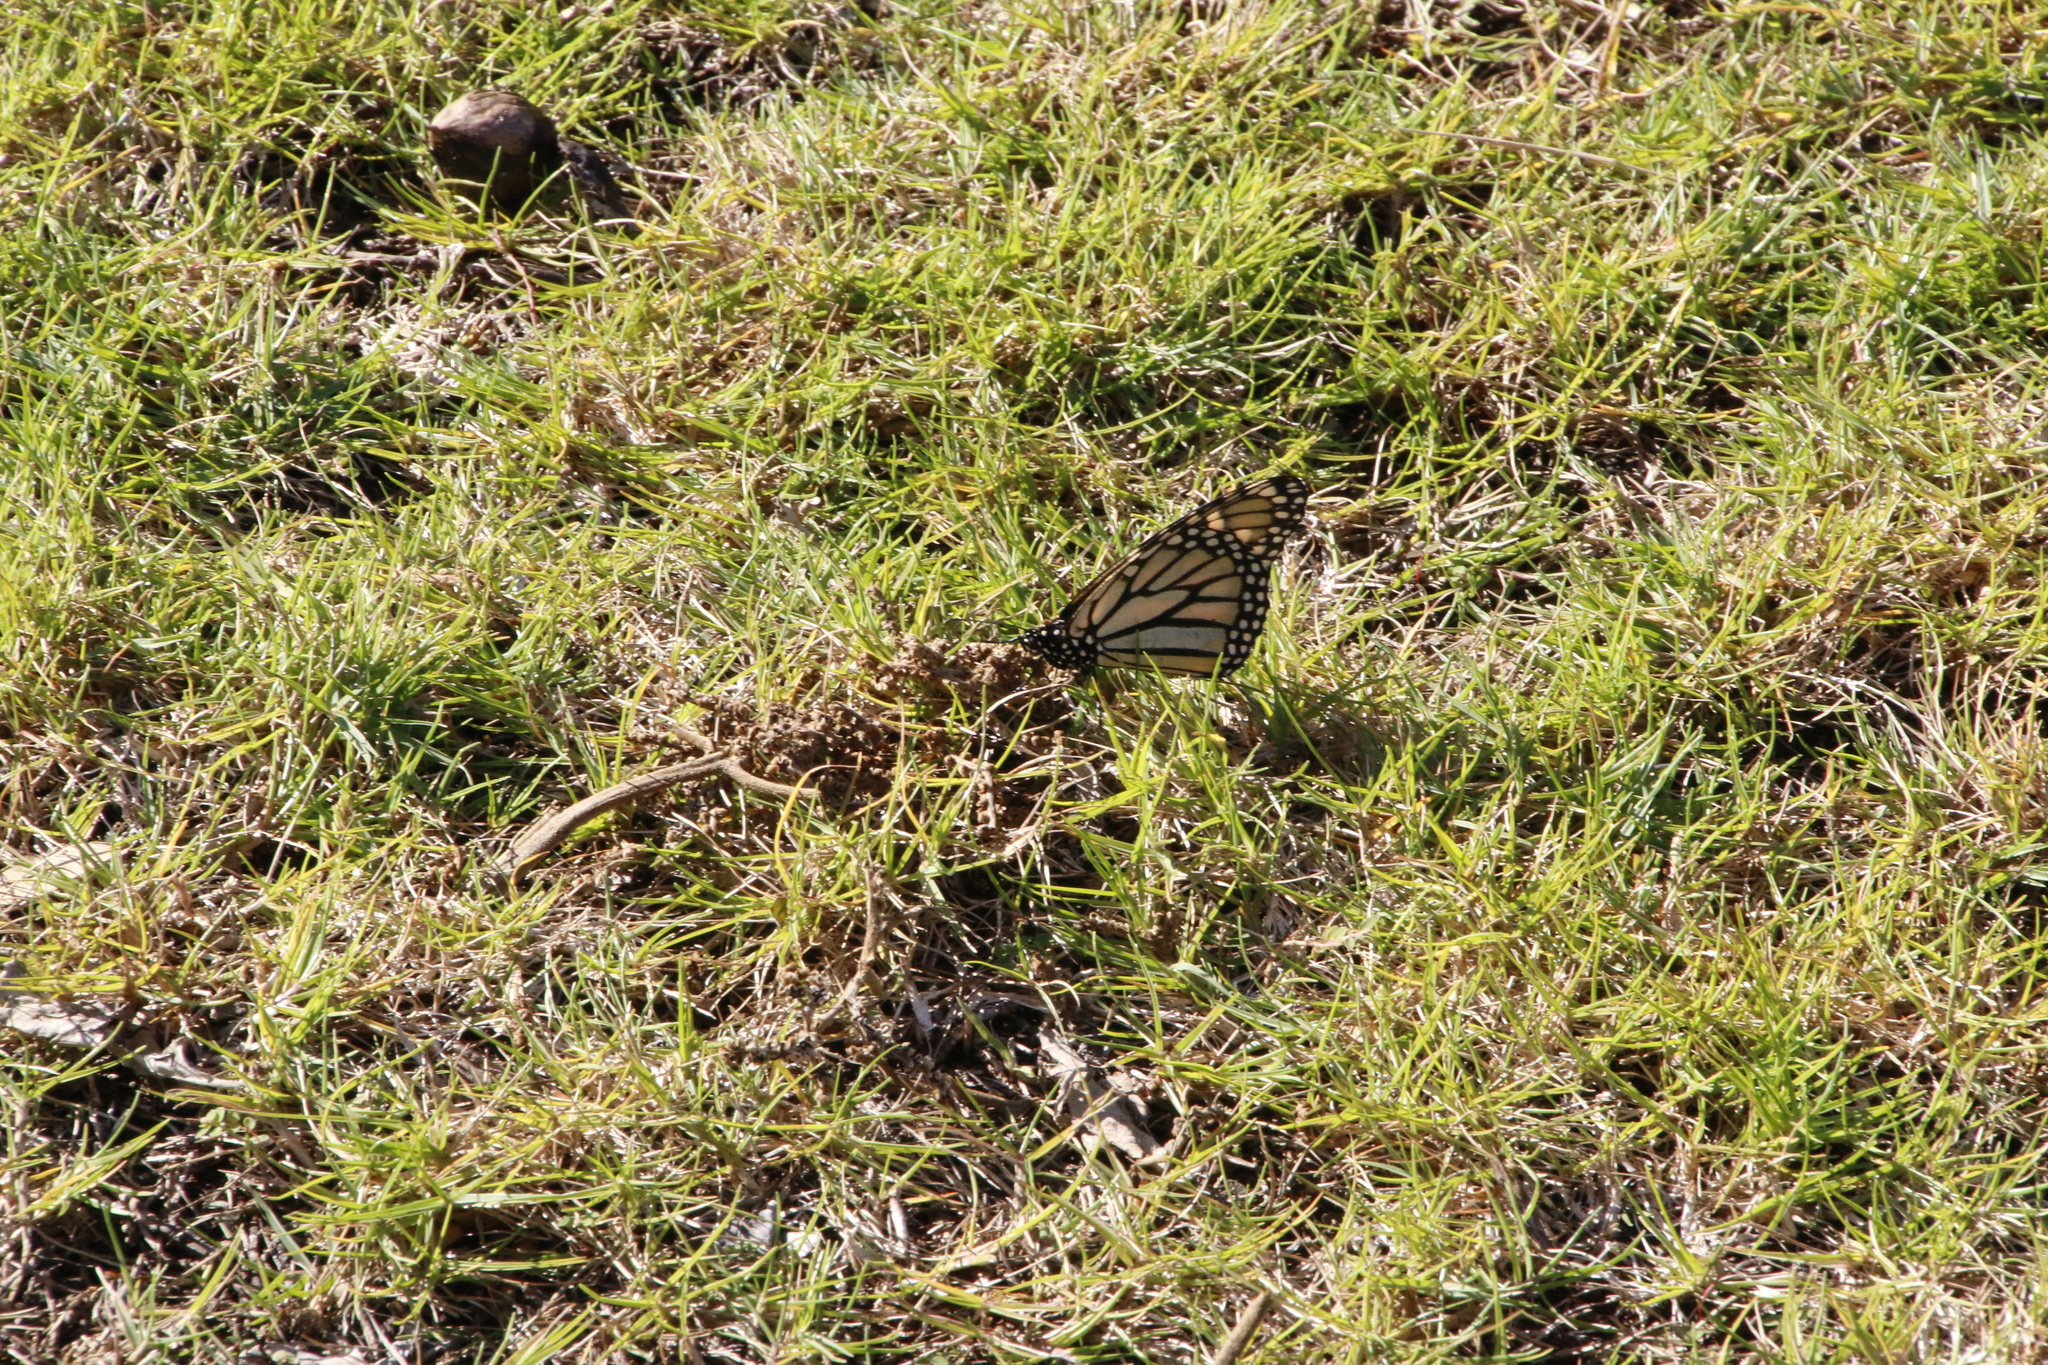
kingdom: Animalia
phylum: Arthropoda
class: Insecta
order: Lepidoptera
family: Nymphalidae
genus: Danaus
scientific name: Danaus plexippus
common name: Monarch
